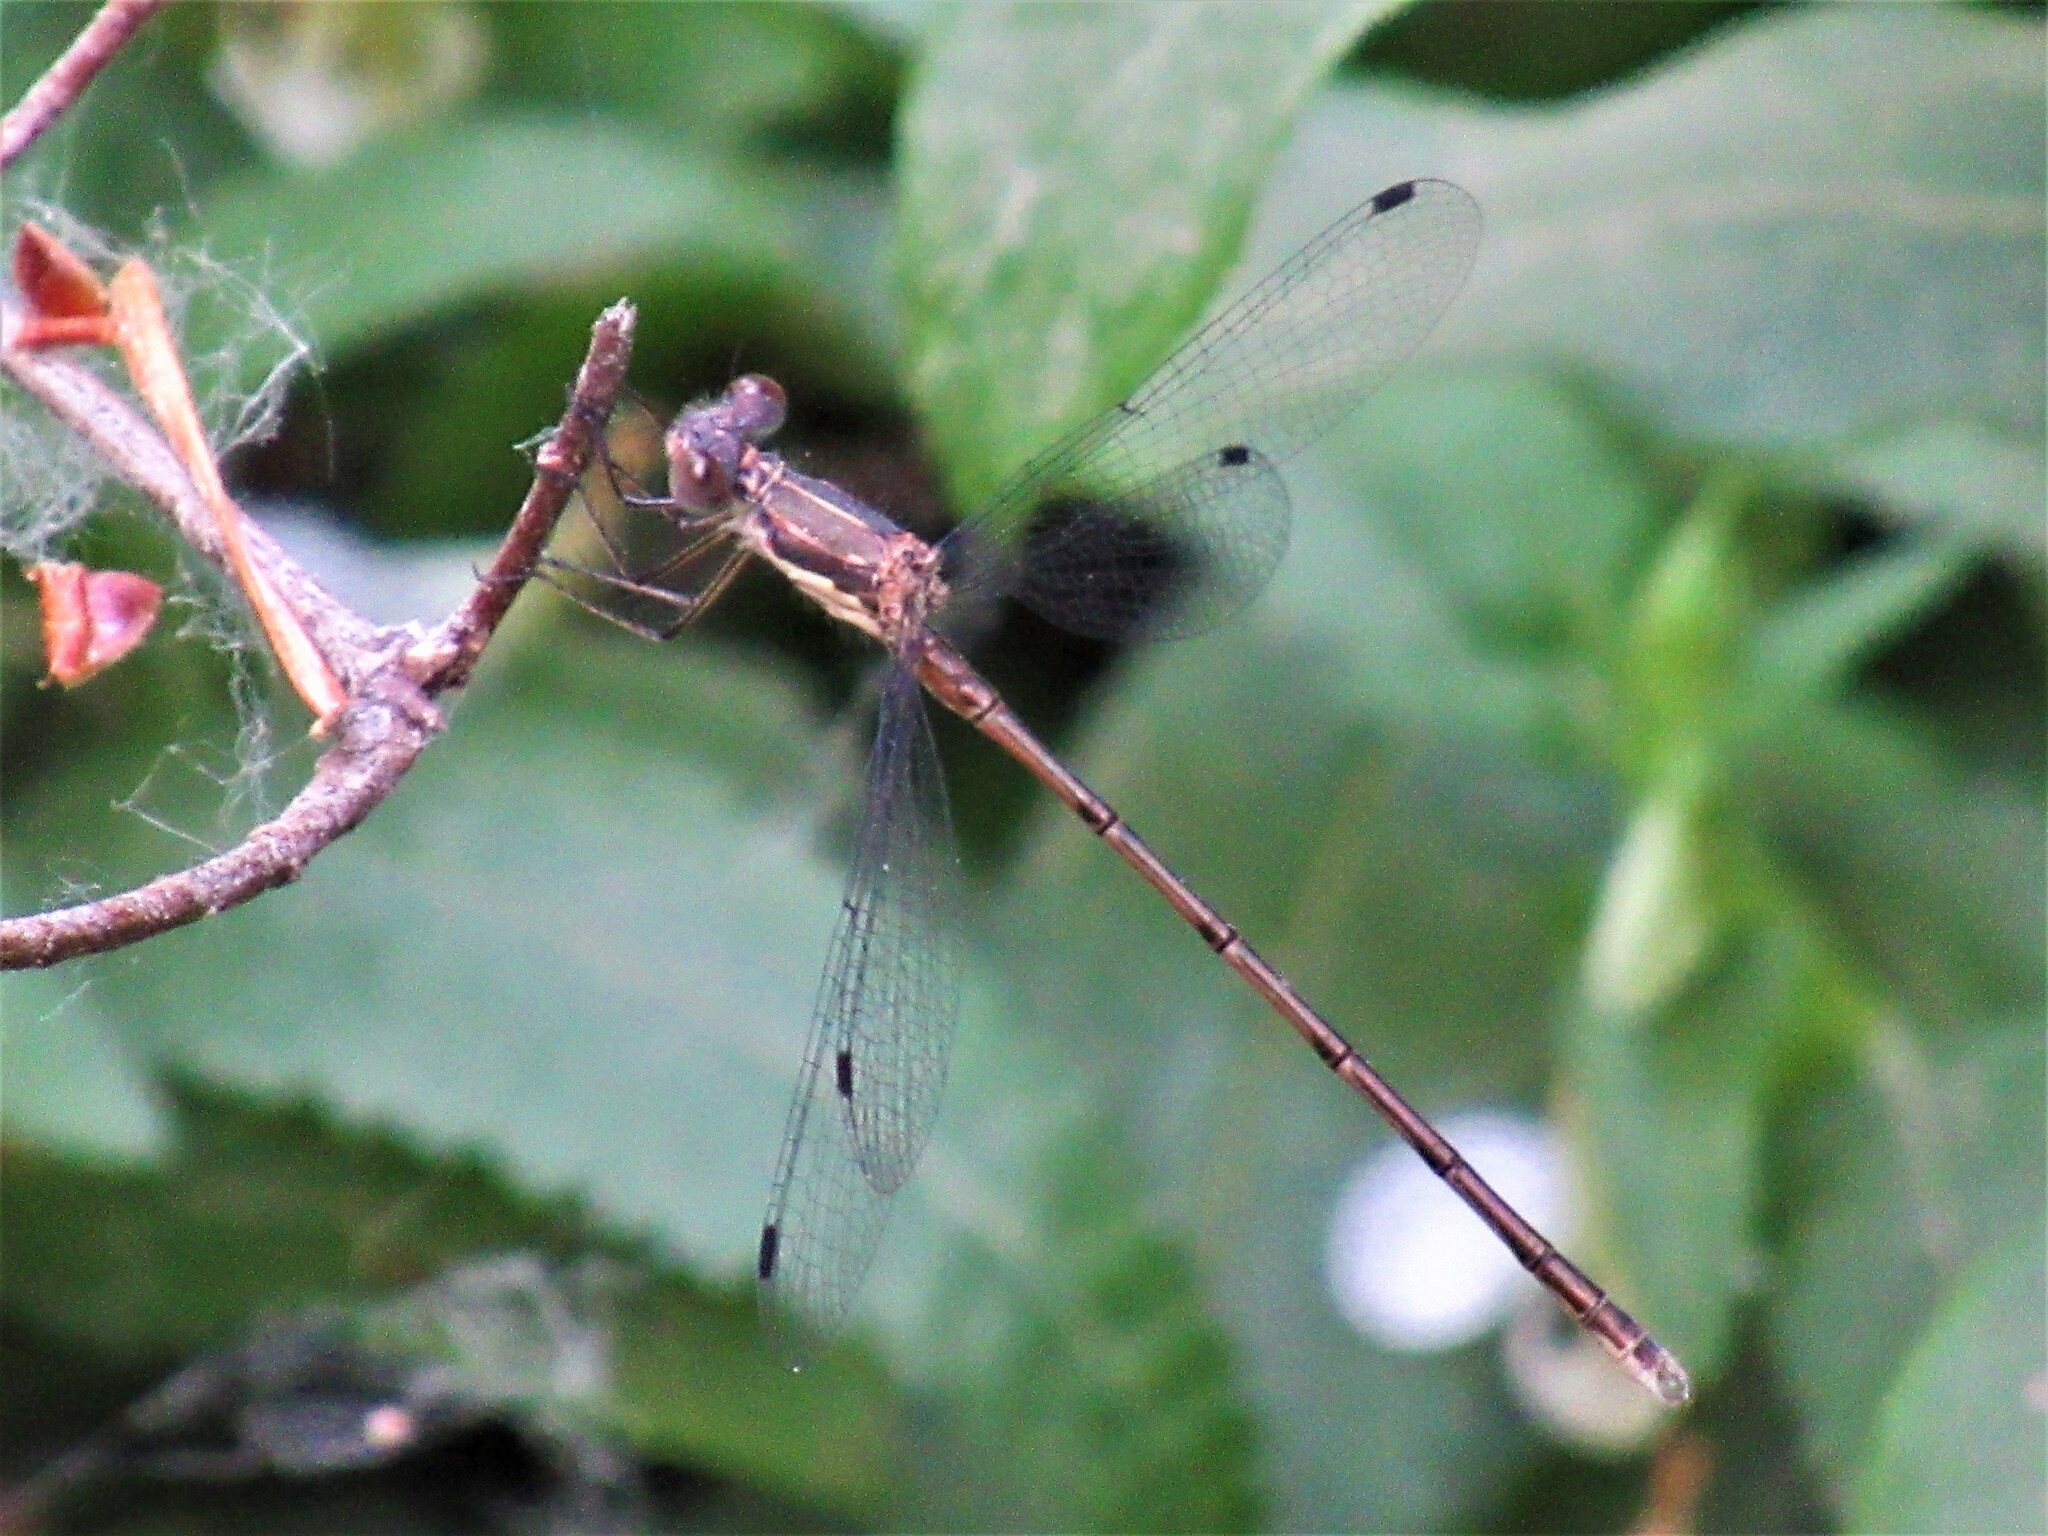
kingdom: Animalia
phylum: Arthropoda
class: Insecta
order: Odonata
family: Lestidae
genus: Lestes
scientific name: Lestes congener
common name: Spotted spreadwing
